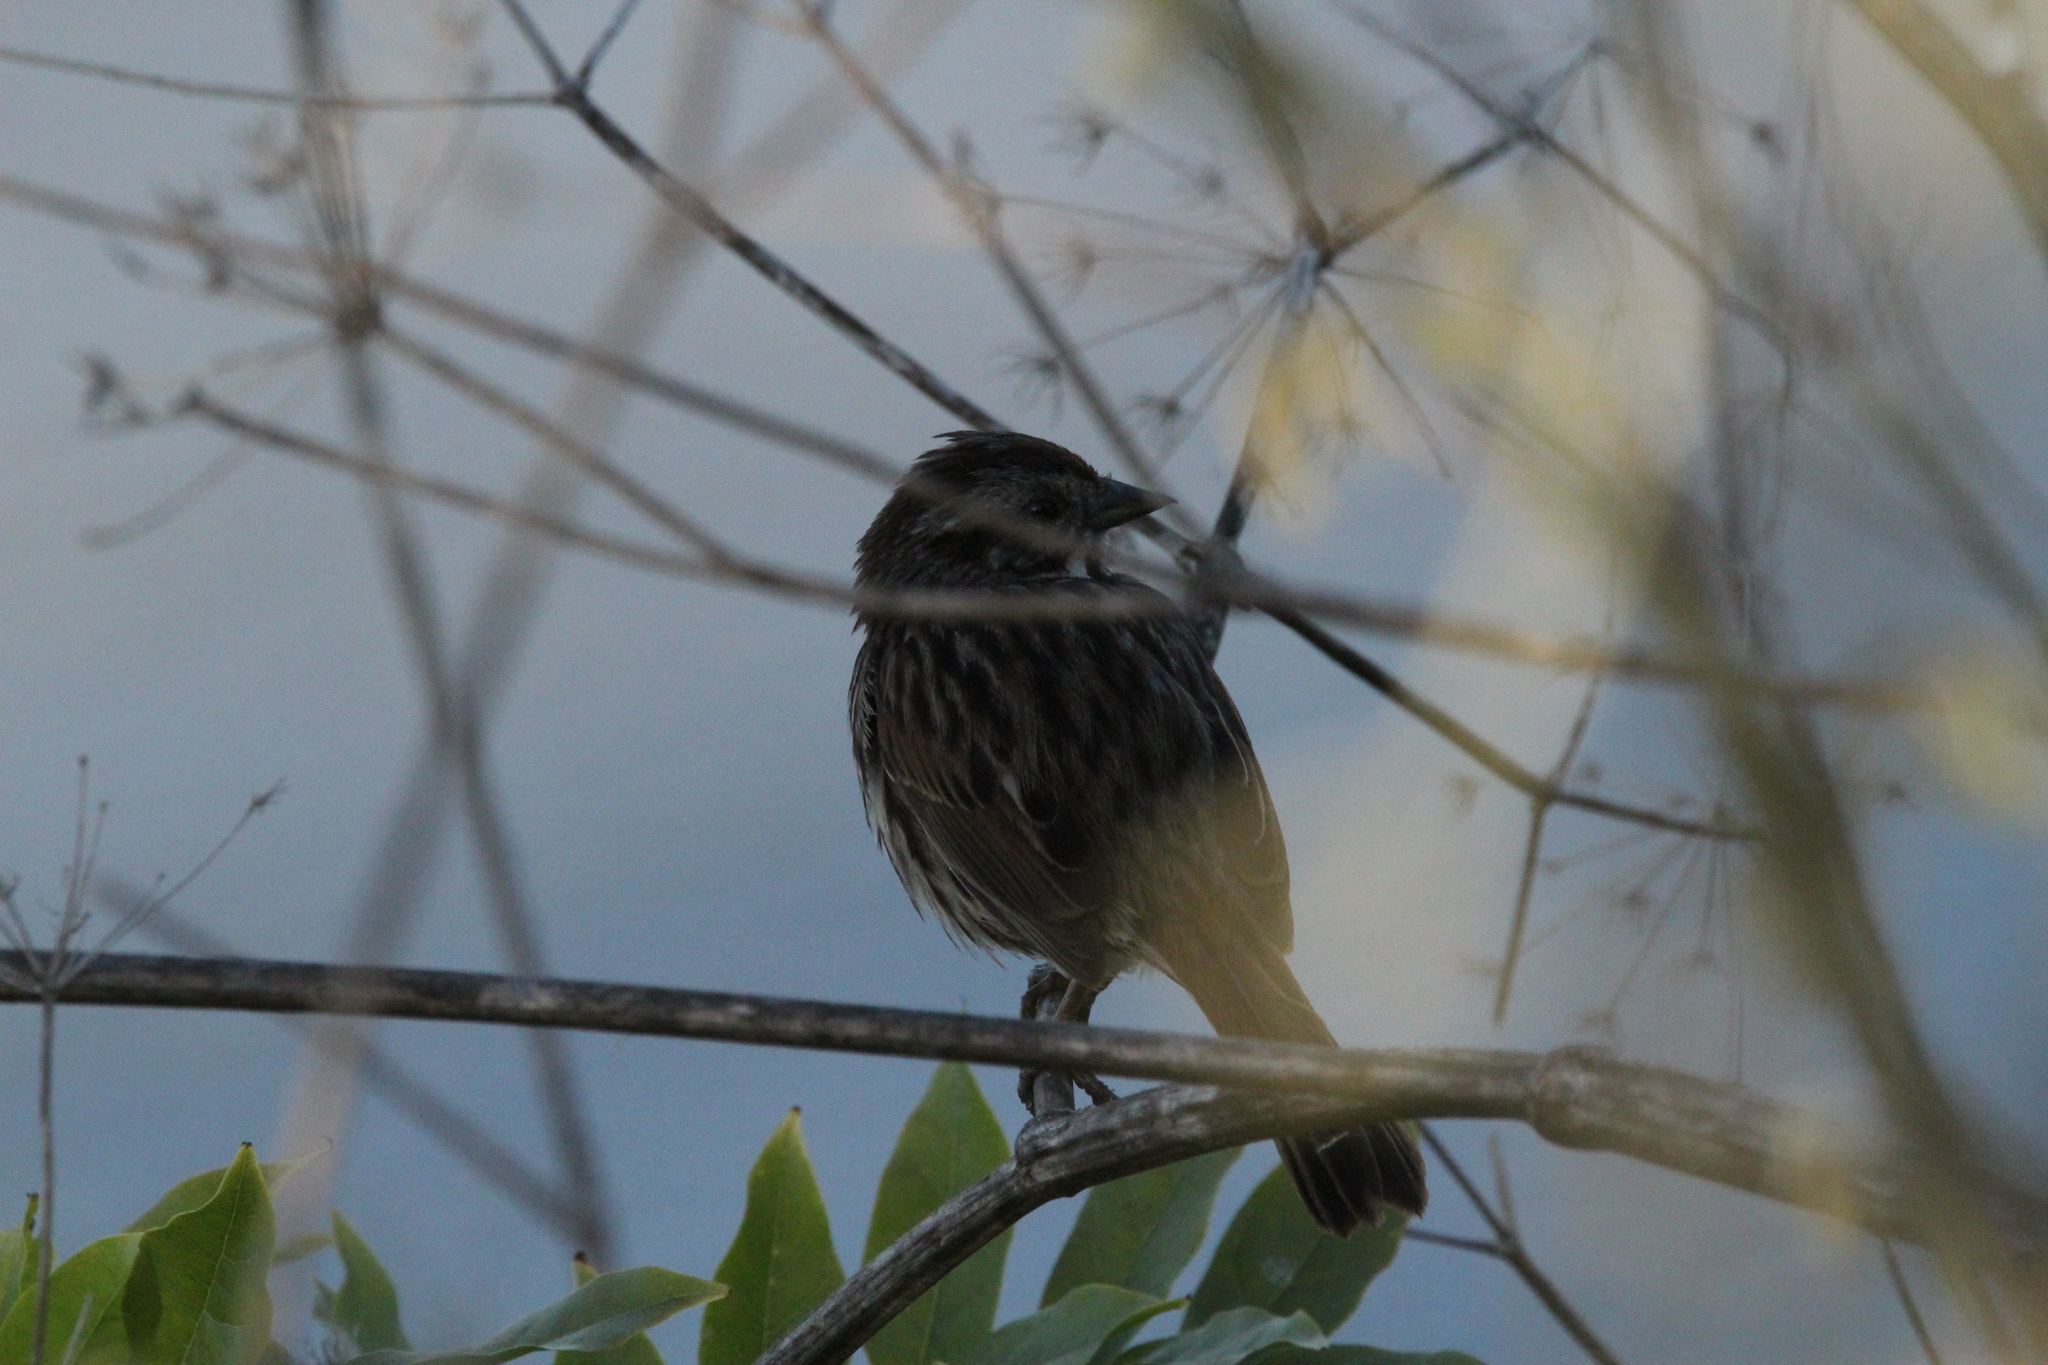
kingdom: Animalia
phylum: Chordata
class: Aves
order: Passeriformes
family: Passerellidae
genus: Melospiza
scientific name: Melospiza melodia
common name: Song sparrow
